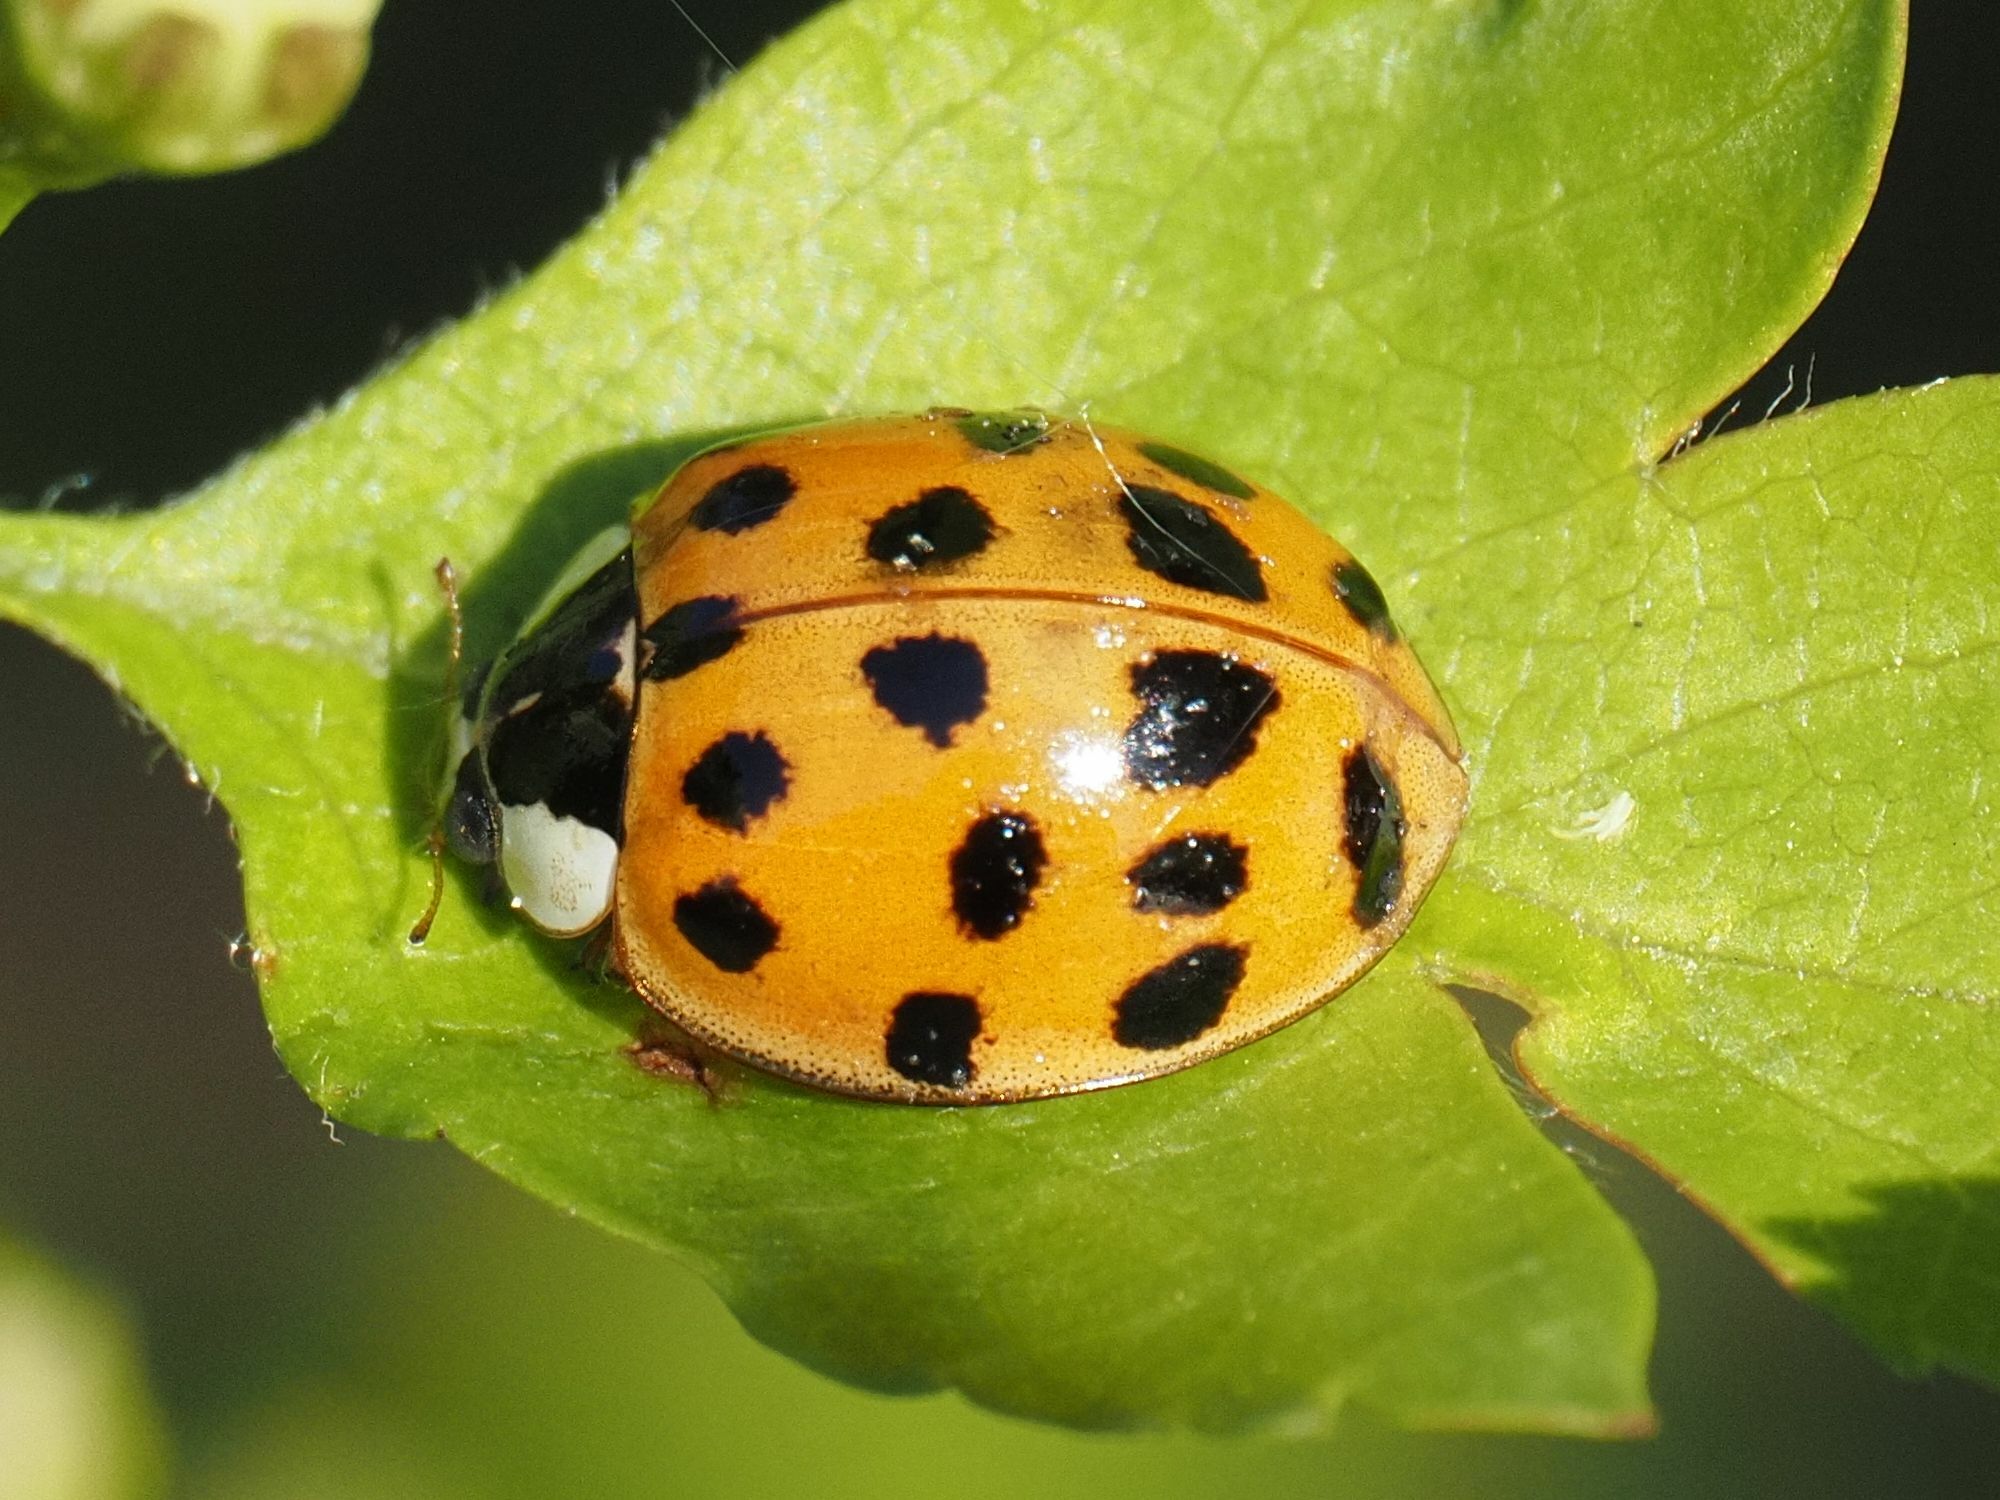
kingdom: Animalia
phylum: Arthropoda
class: Insecta
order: Coleoptera
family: Coccinellidae
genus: Harmonia
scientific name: Harmonia axyridis
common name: Harlequin ladybird
